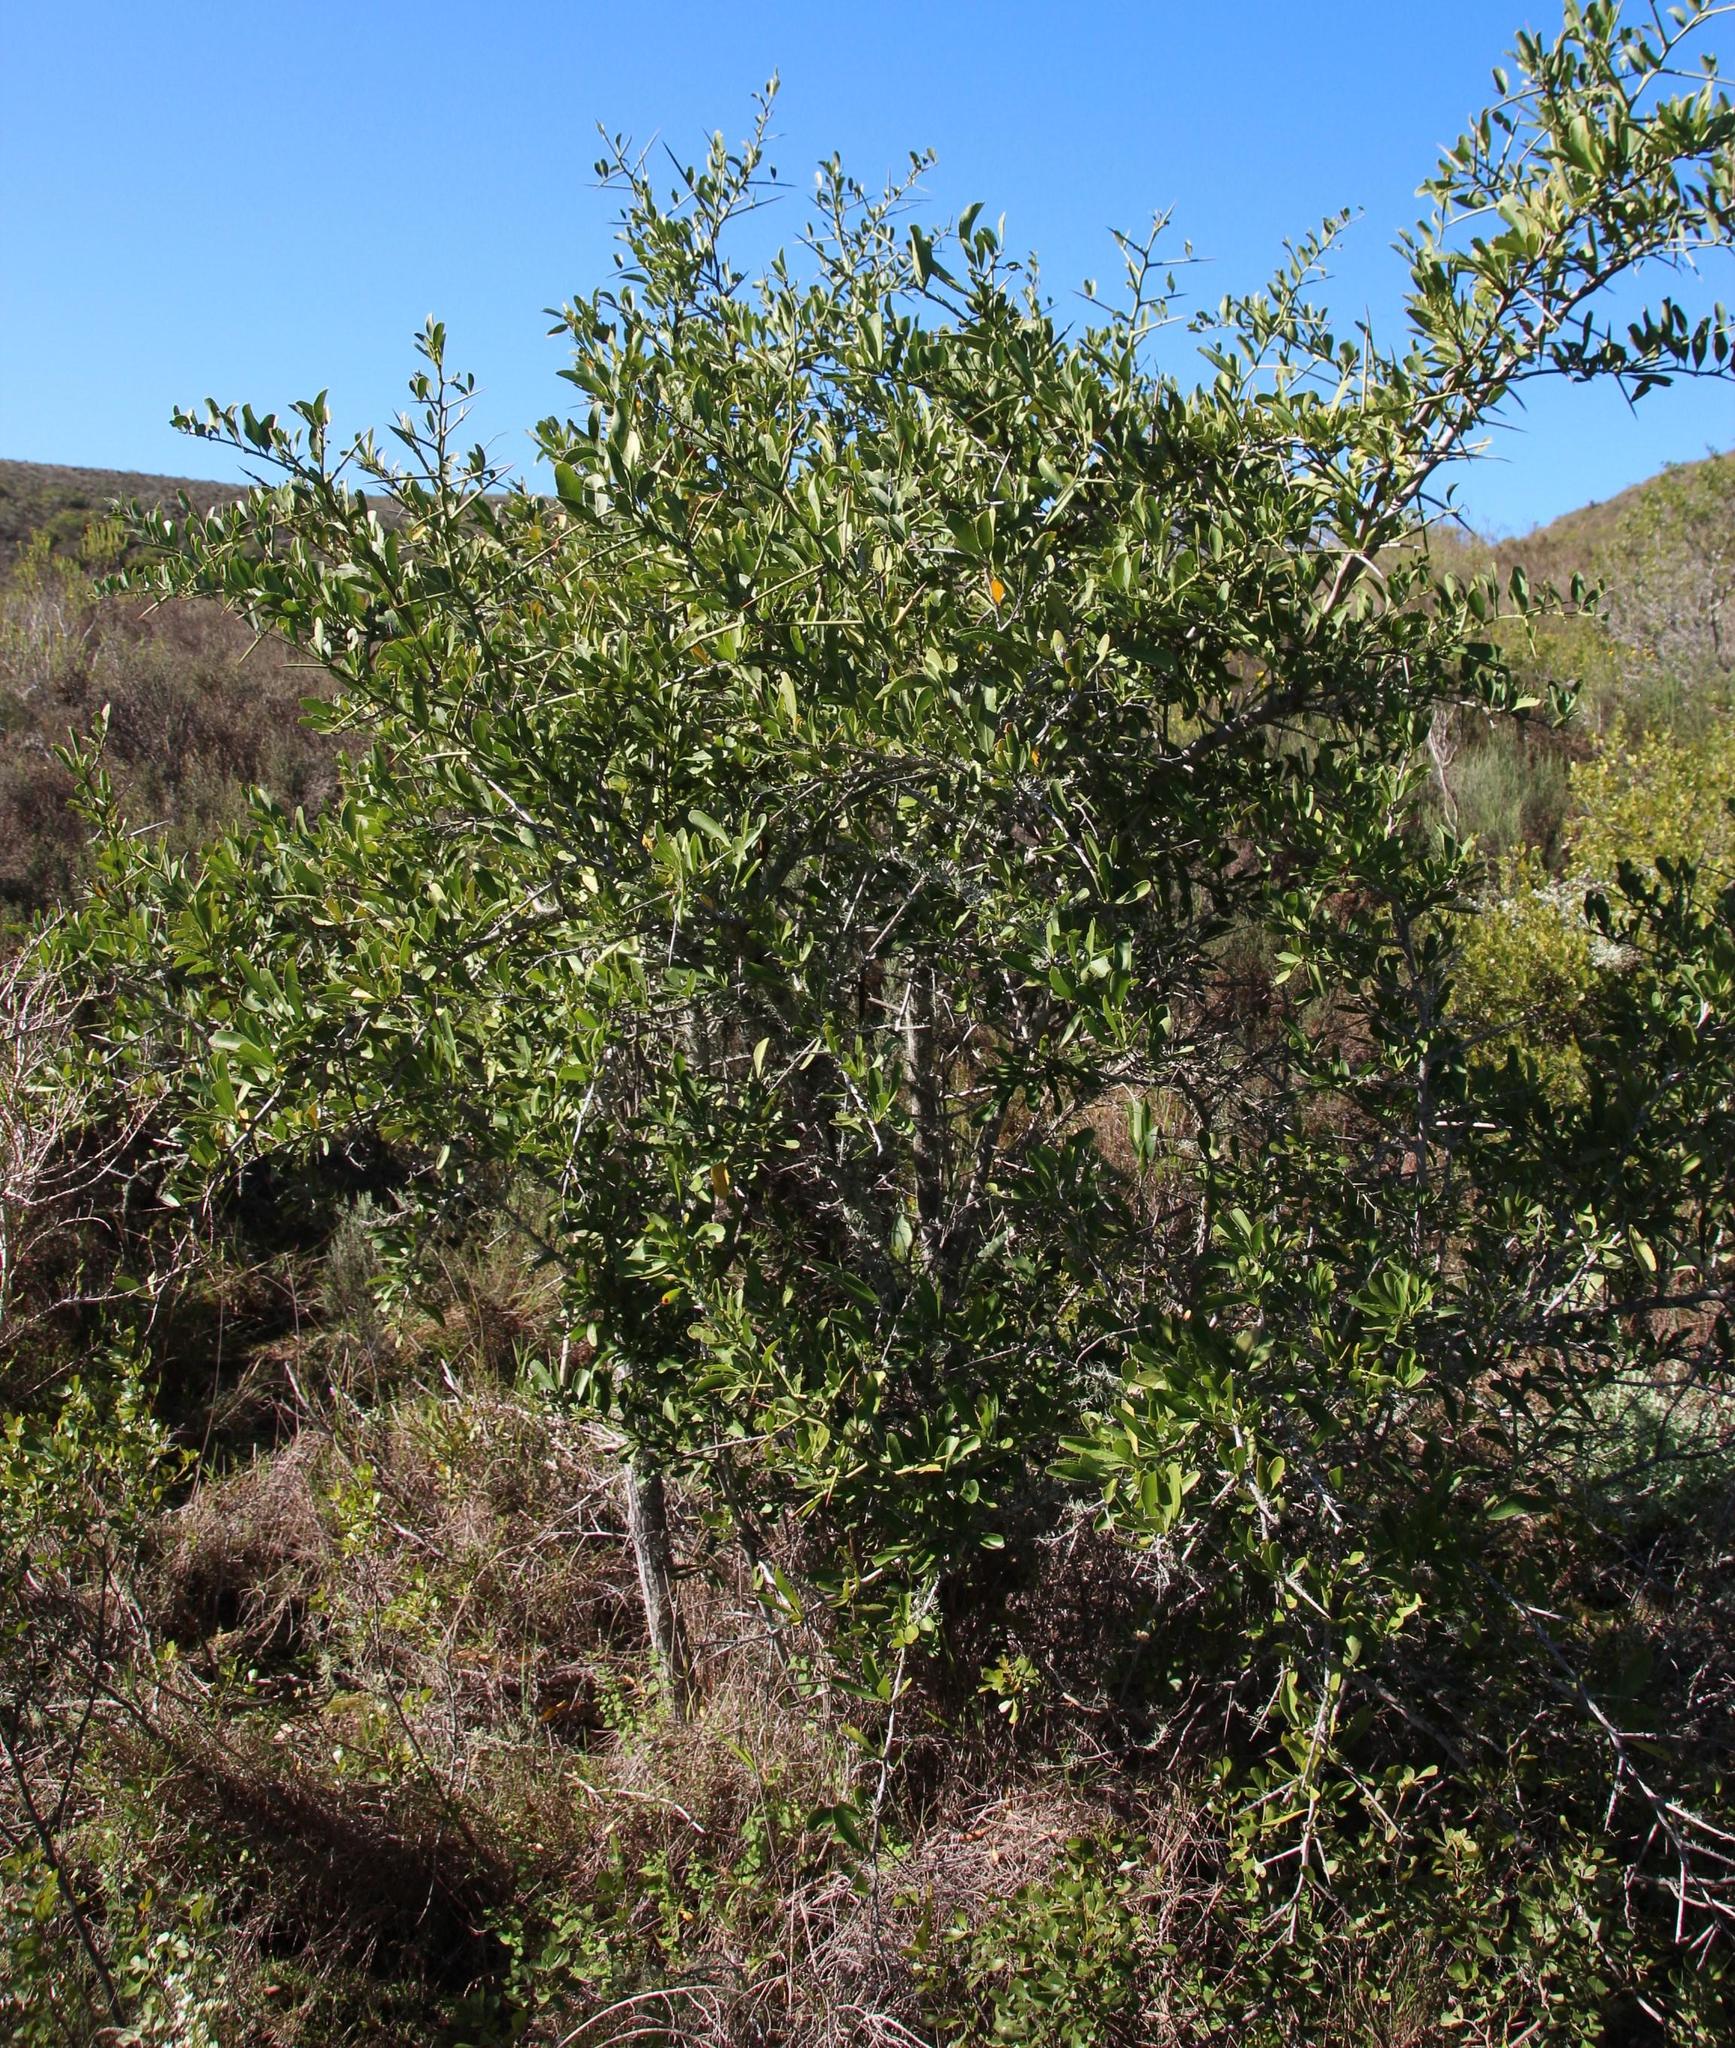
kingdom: Plantae
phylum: Tracheophyta
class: Magnoliopsida
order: Celastrales
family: Celastraceae
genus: Gymnosporia
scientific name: Gymnosporia buxifolia
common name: Common spike-thorn
